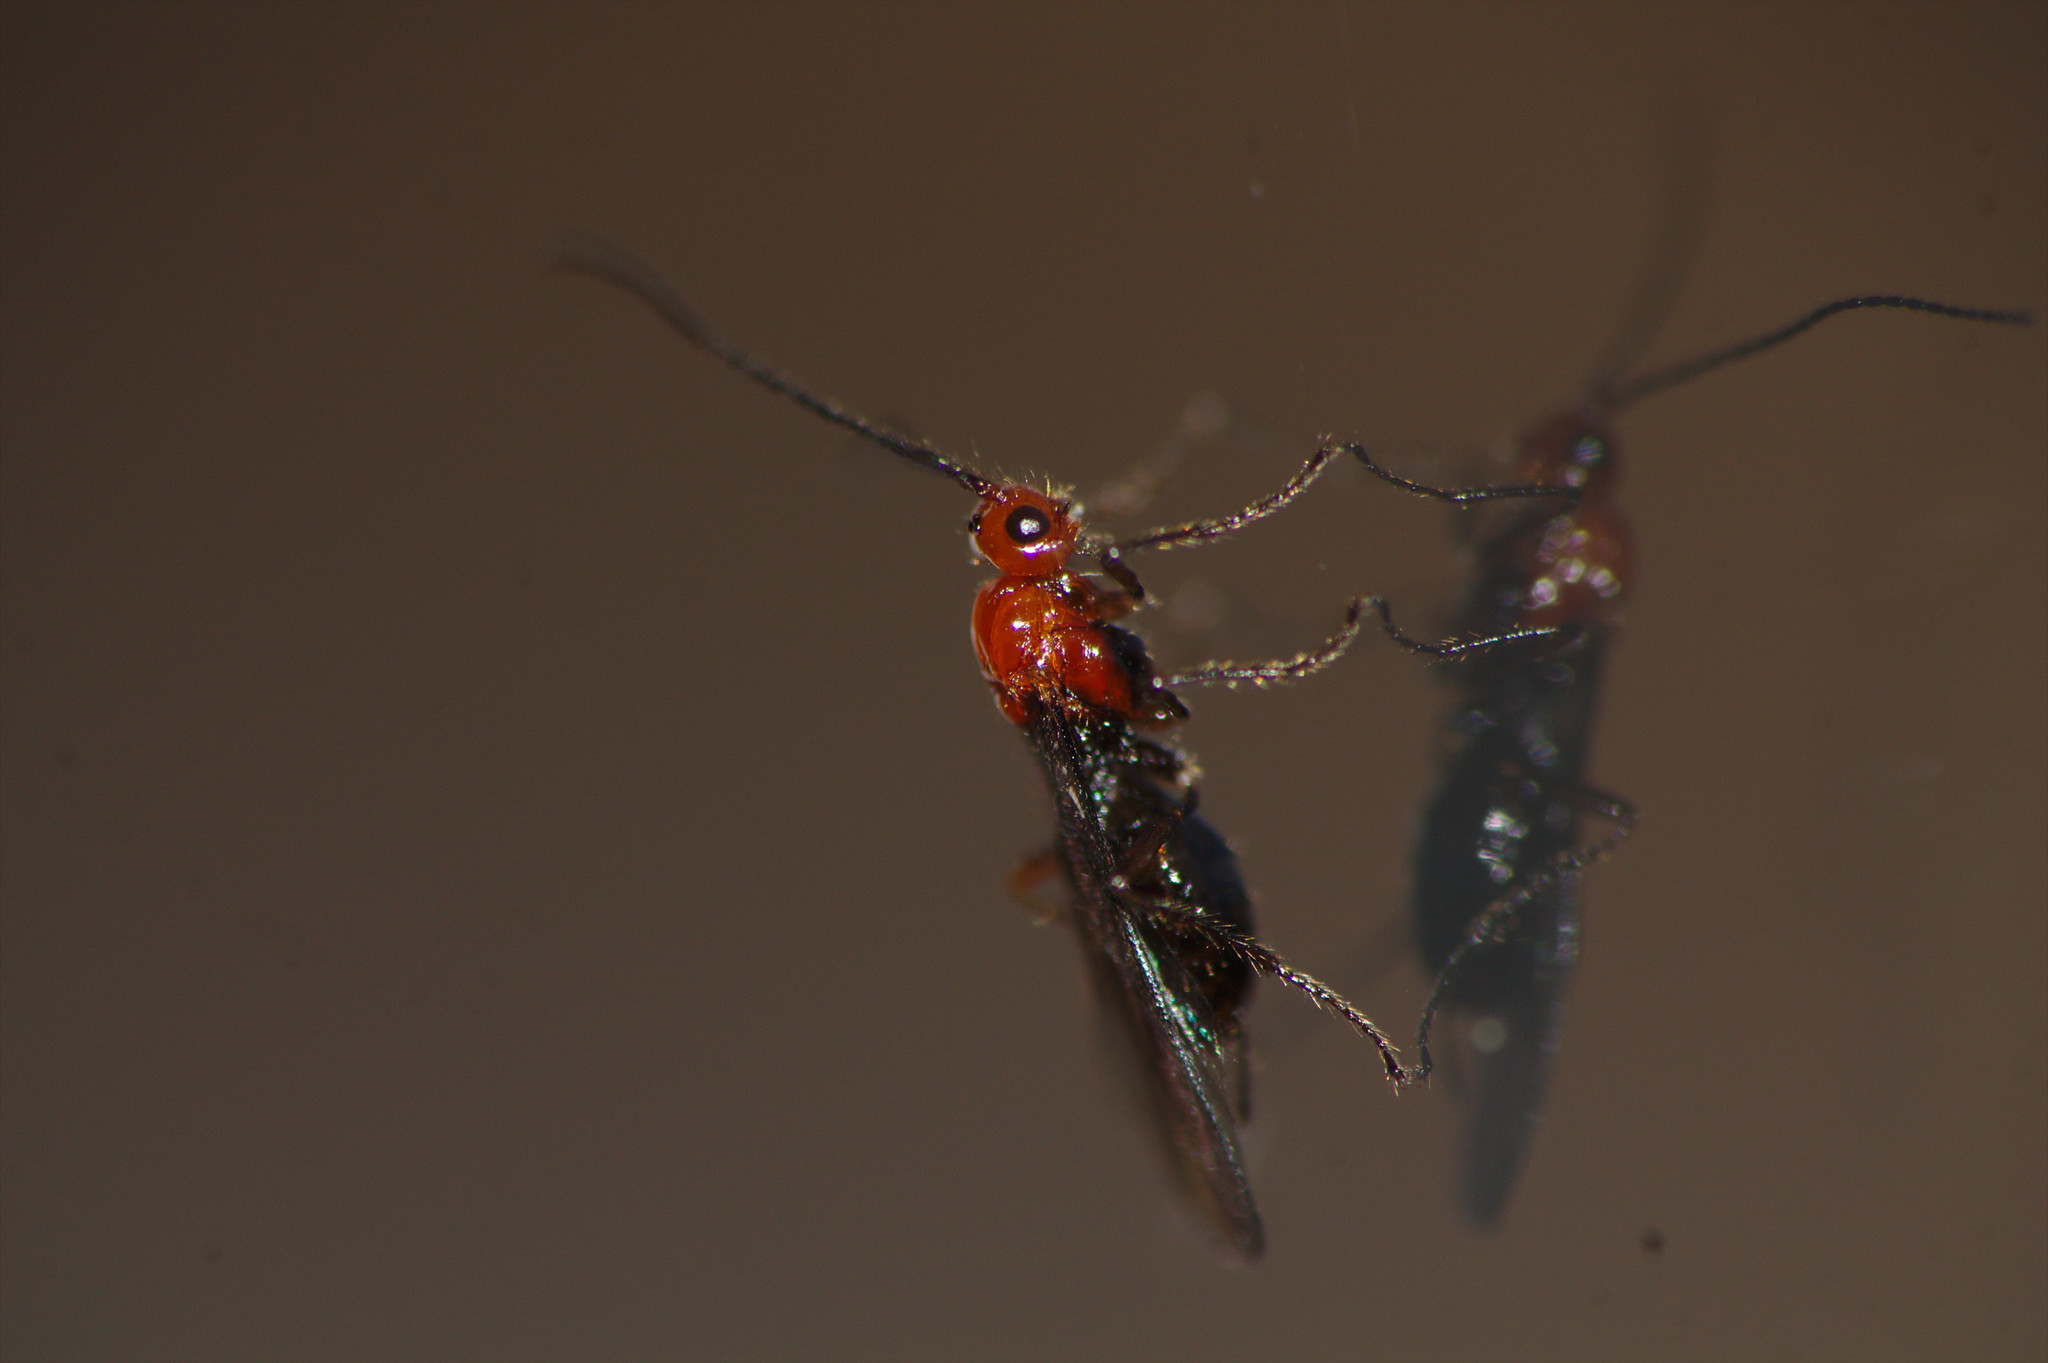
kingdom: Animalia
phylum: Arthropoda
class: Insecta
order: Hymenoptera
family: Braconidae
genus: Asobara
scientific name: Asobara antipoda
